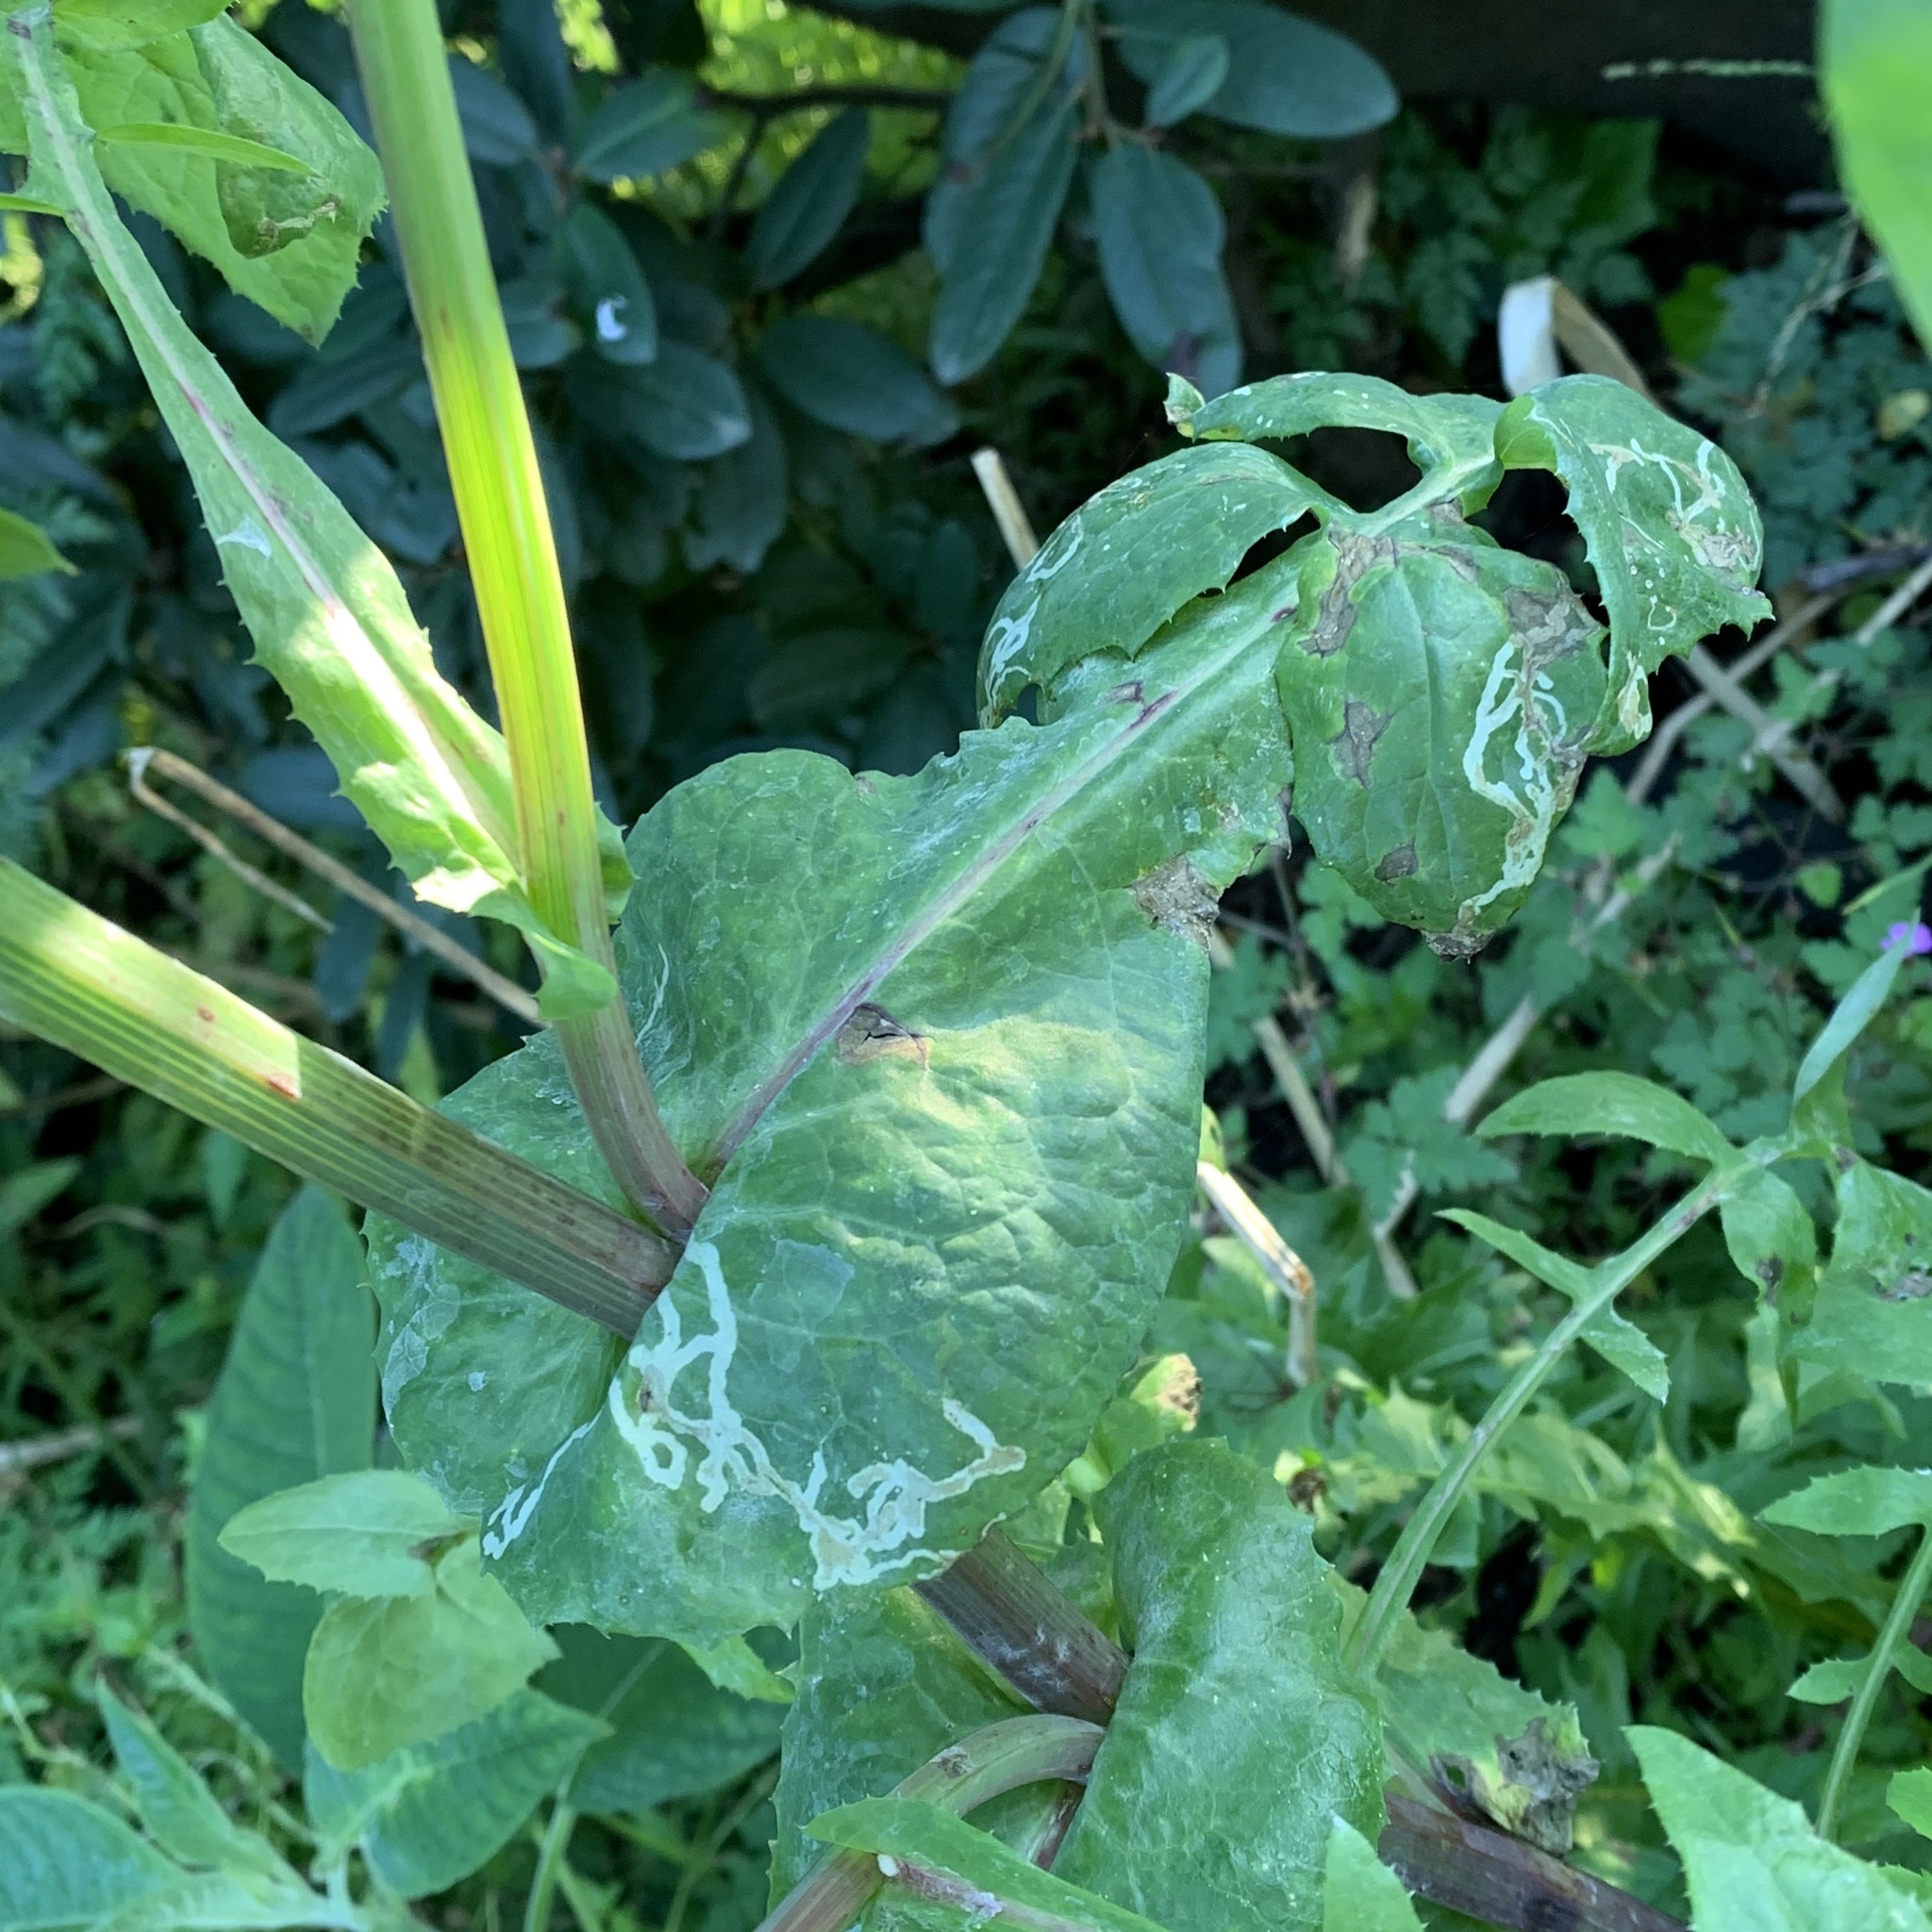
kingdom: Animalia
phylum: Arthropoda
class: Insecta
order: Diptera
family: Agromyzidae
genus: Phytomyza
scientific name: Phytomyza syngenesiae
